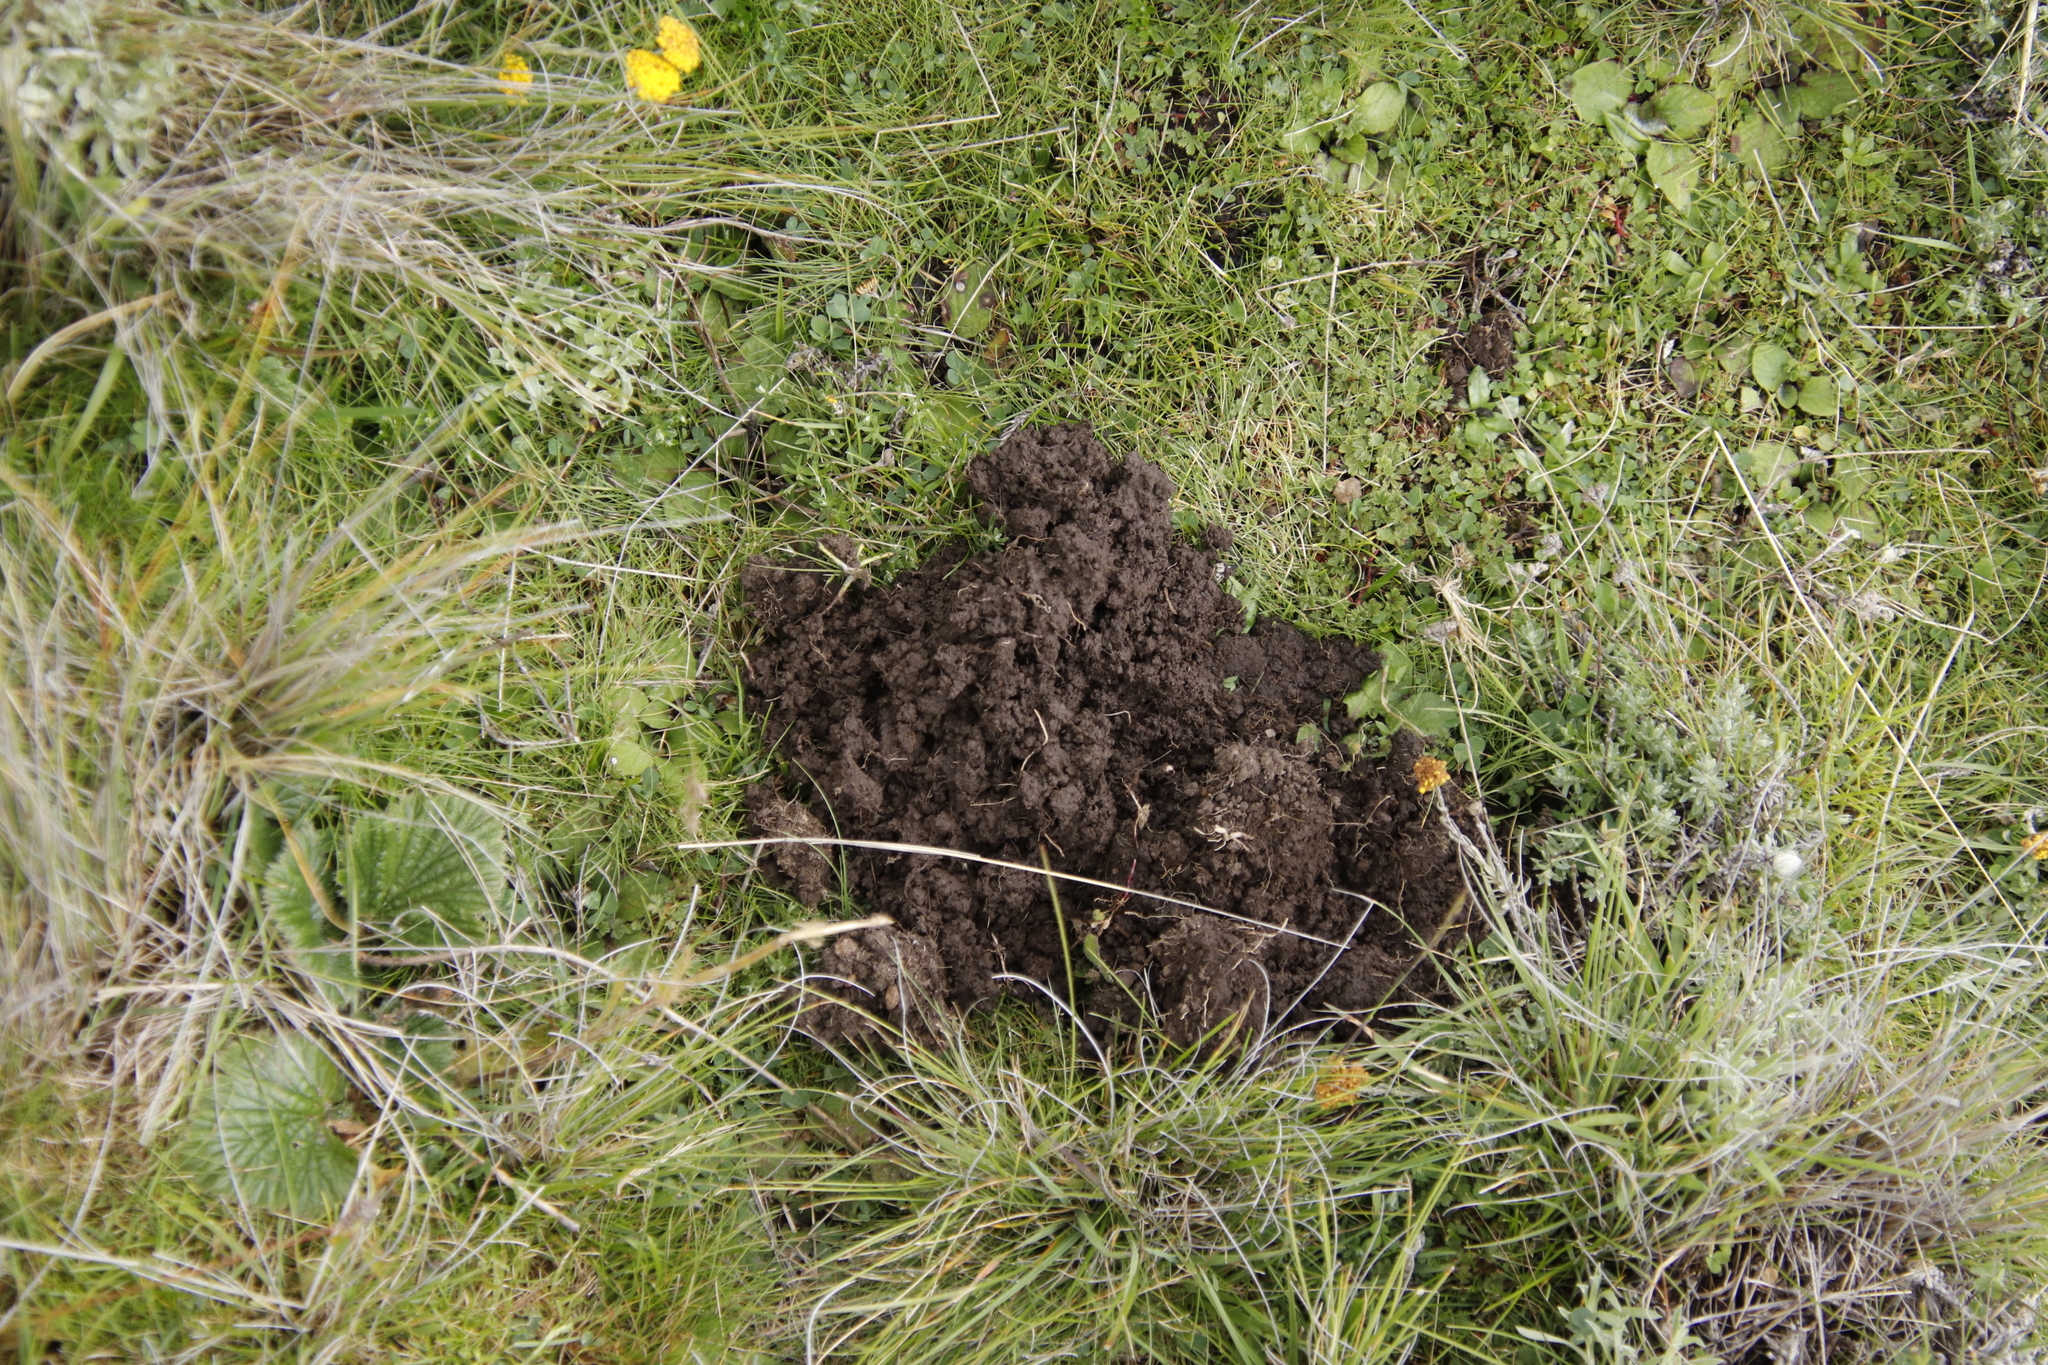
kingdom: Animalia
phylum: Chordata
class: Mammalia
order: Rodentia
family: Bathyergidae
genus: Cryptomys
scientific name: Cryptomys hottentotus
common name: Southern african mole-rat
